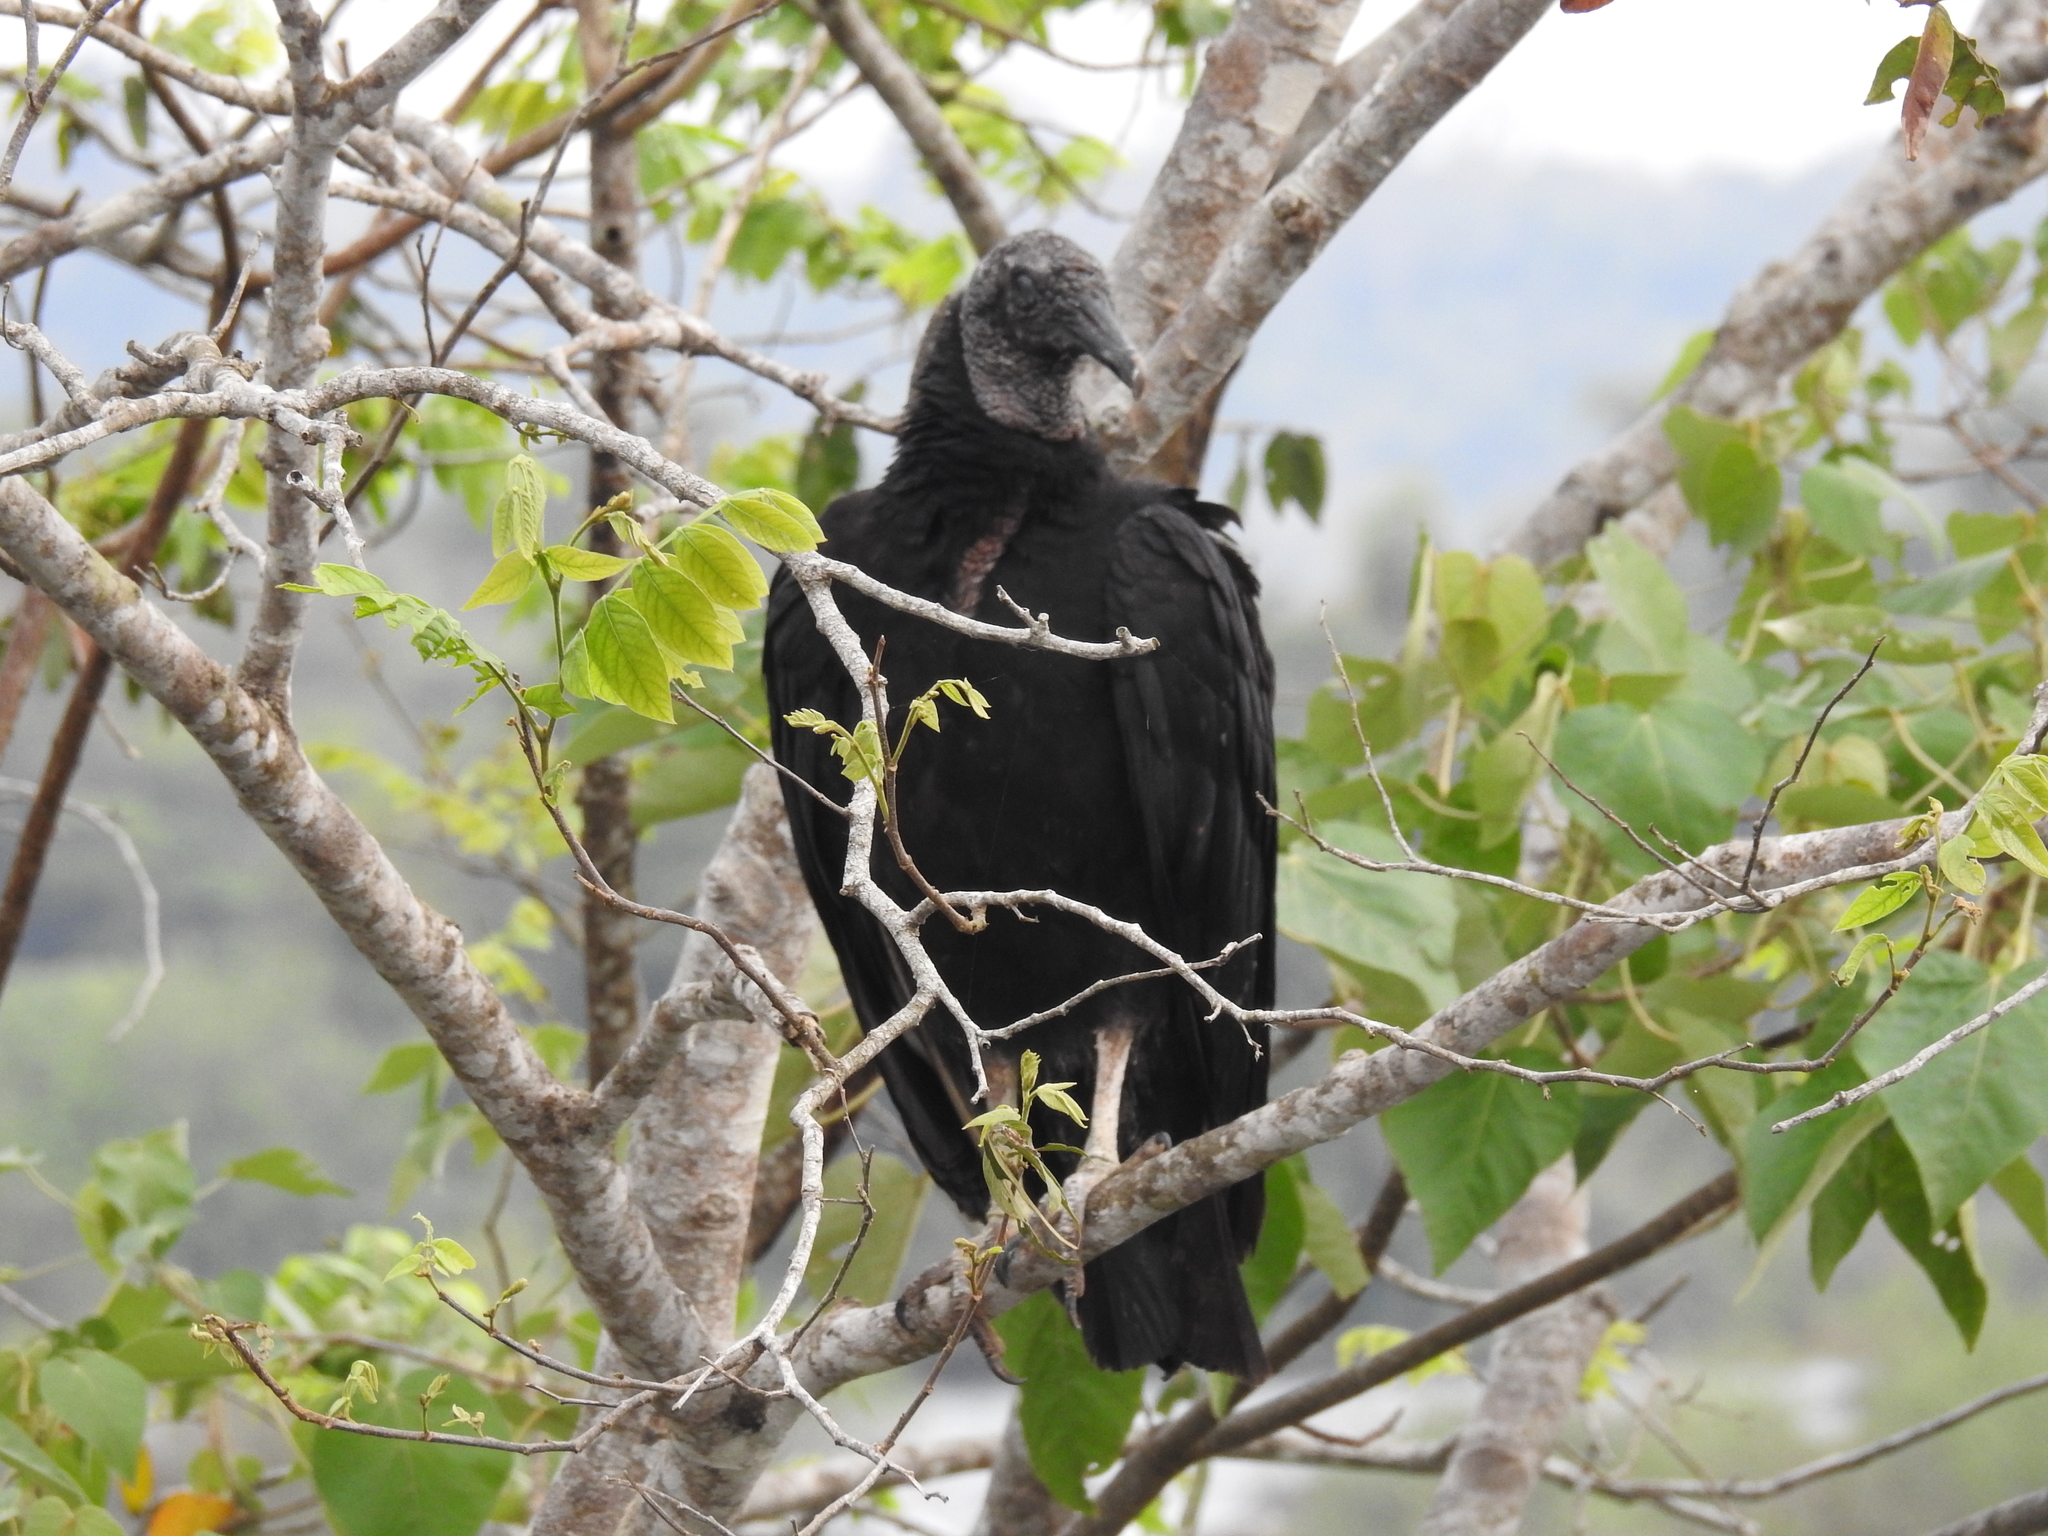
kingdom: Animalia
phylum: Chordata
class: Aves
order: Accipitriformes
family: Cathartidae
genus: Coragyps
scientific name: Coragyps atratus
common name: Black vulture
